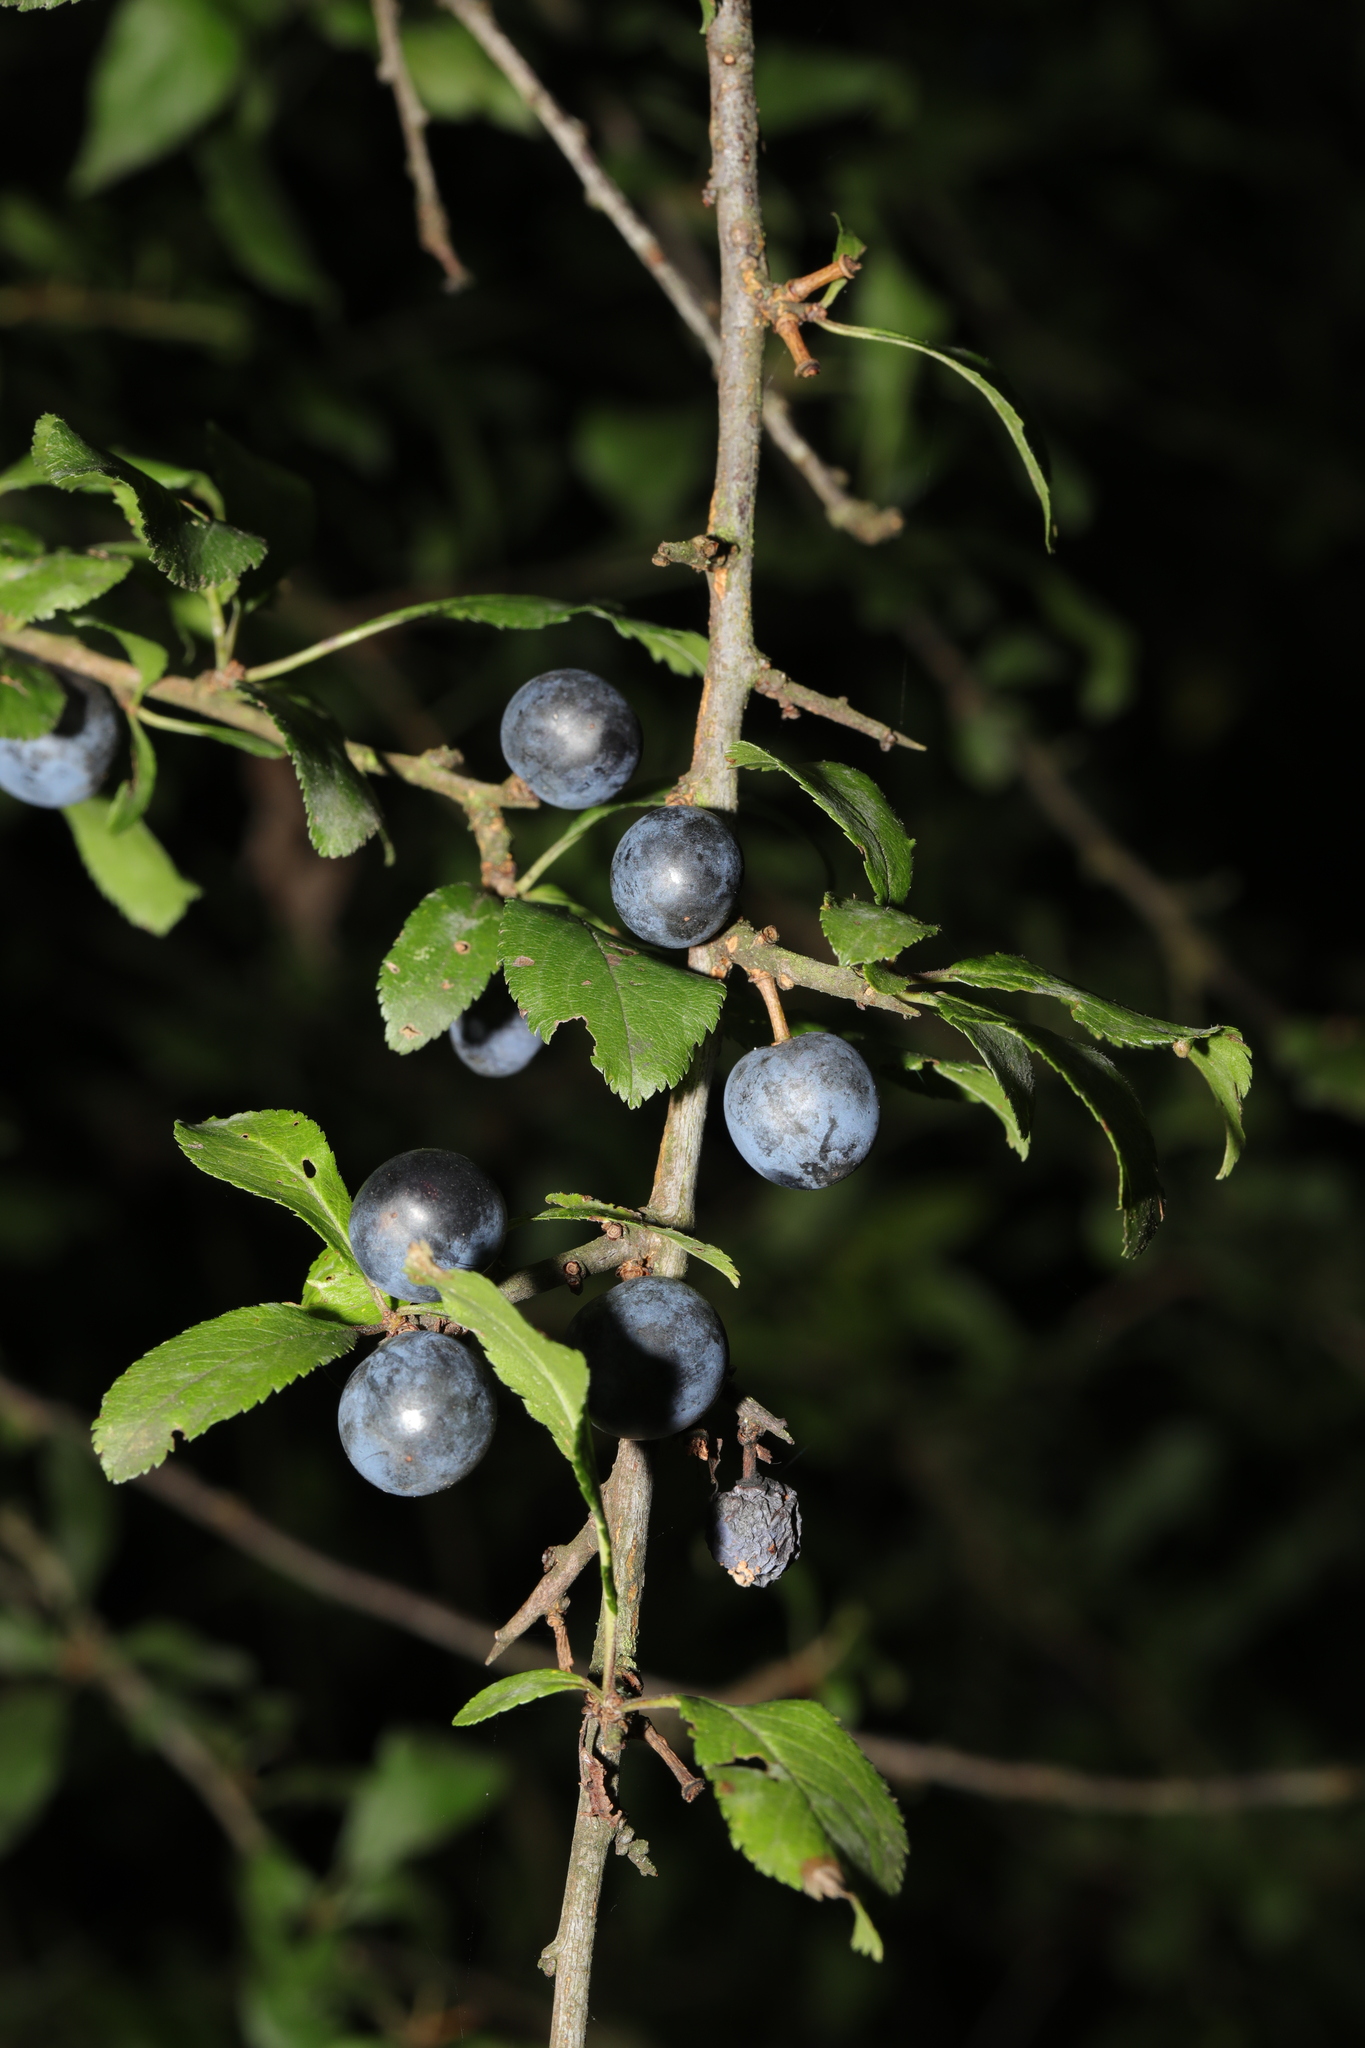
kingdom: Plantae
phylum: Tracheophyta
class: Magnoliopsida
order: Rosales
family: Rosaceae
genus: Prunus
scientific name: Prunus spinosa
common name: Blackthorn
